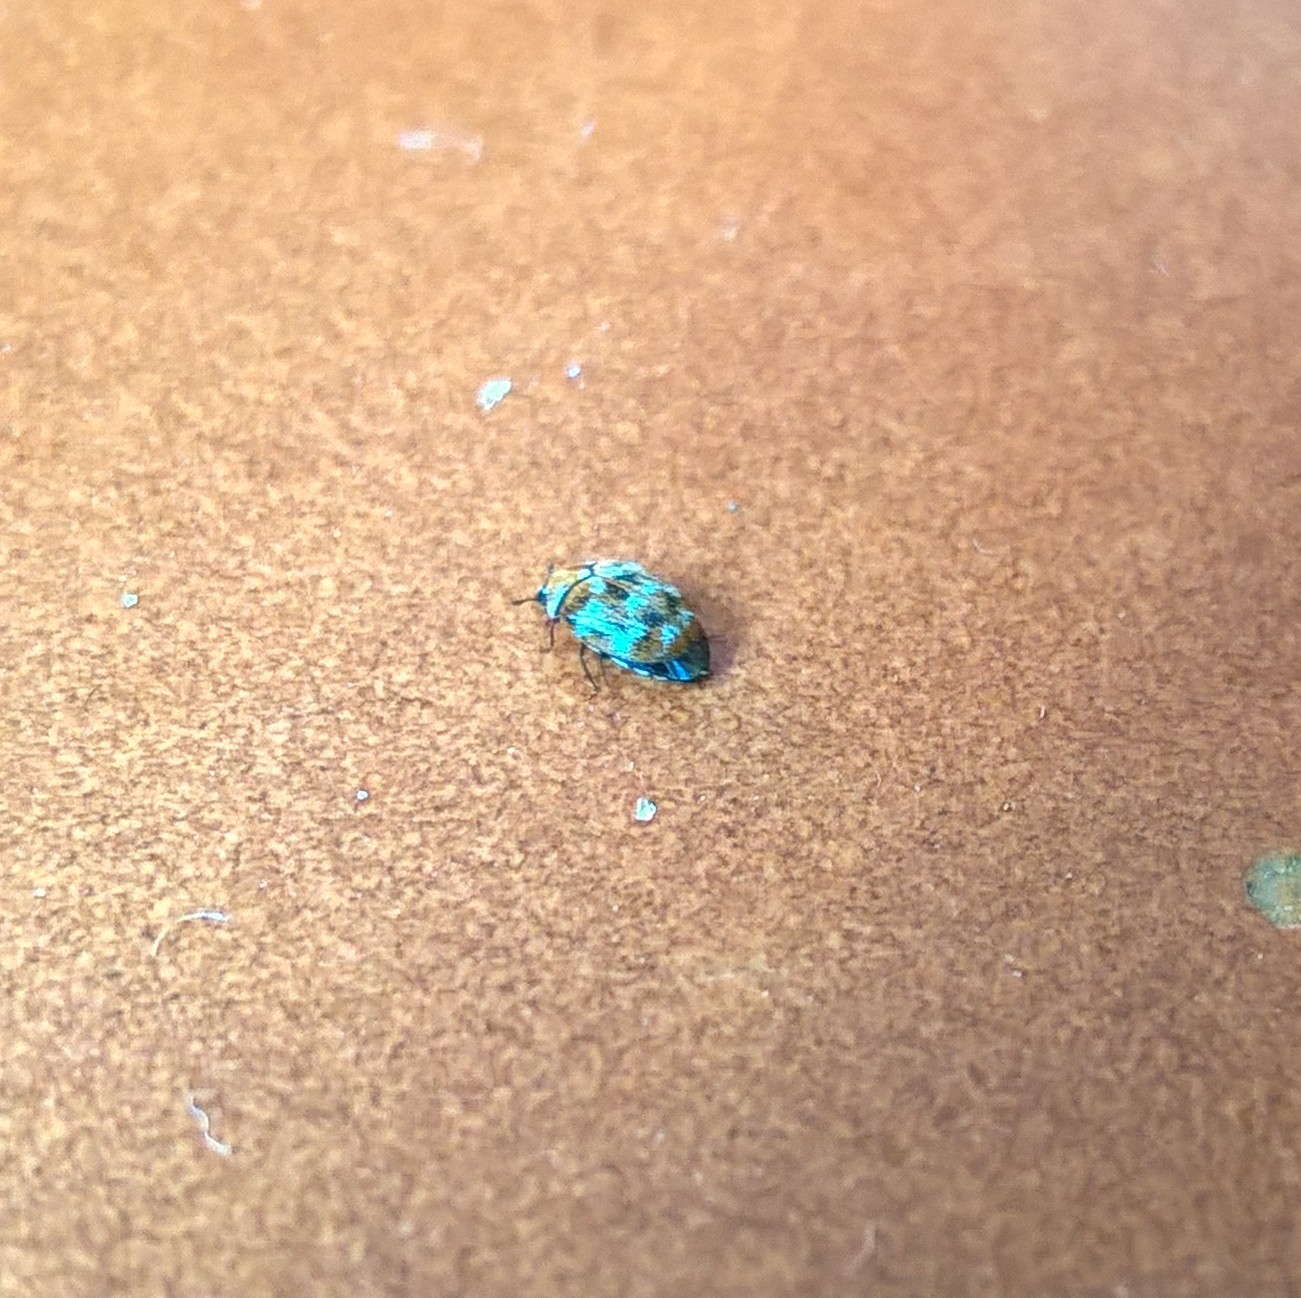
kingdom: Animalia
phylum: Arthropoda
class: Insecta
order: Coleoptera
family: Dermestidae
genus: Anthrenus
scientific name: Anthrenus verbasci
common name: Varied carpet beetle
